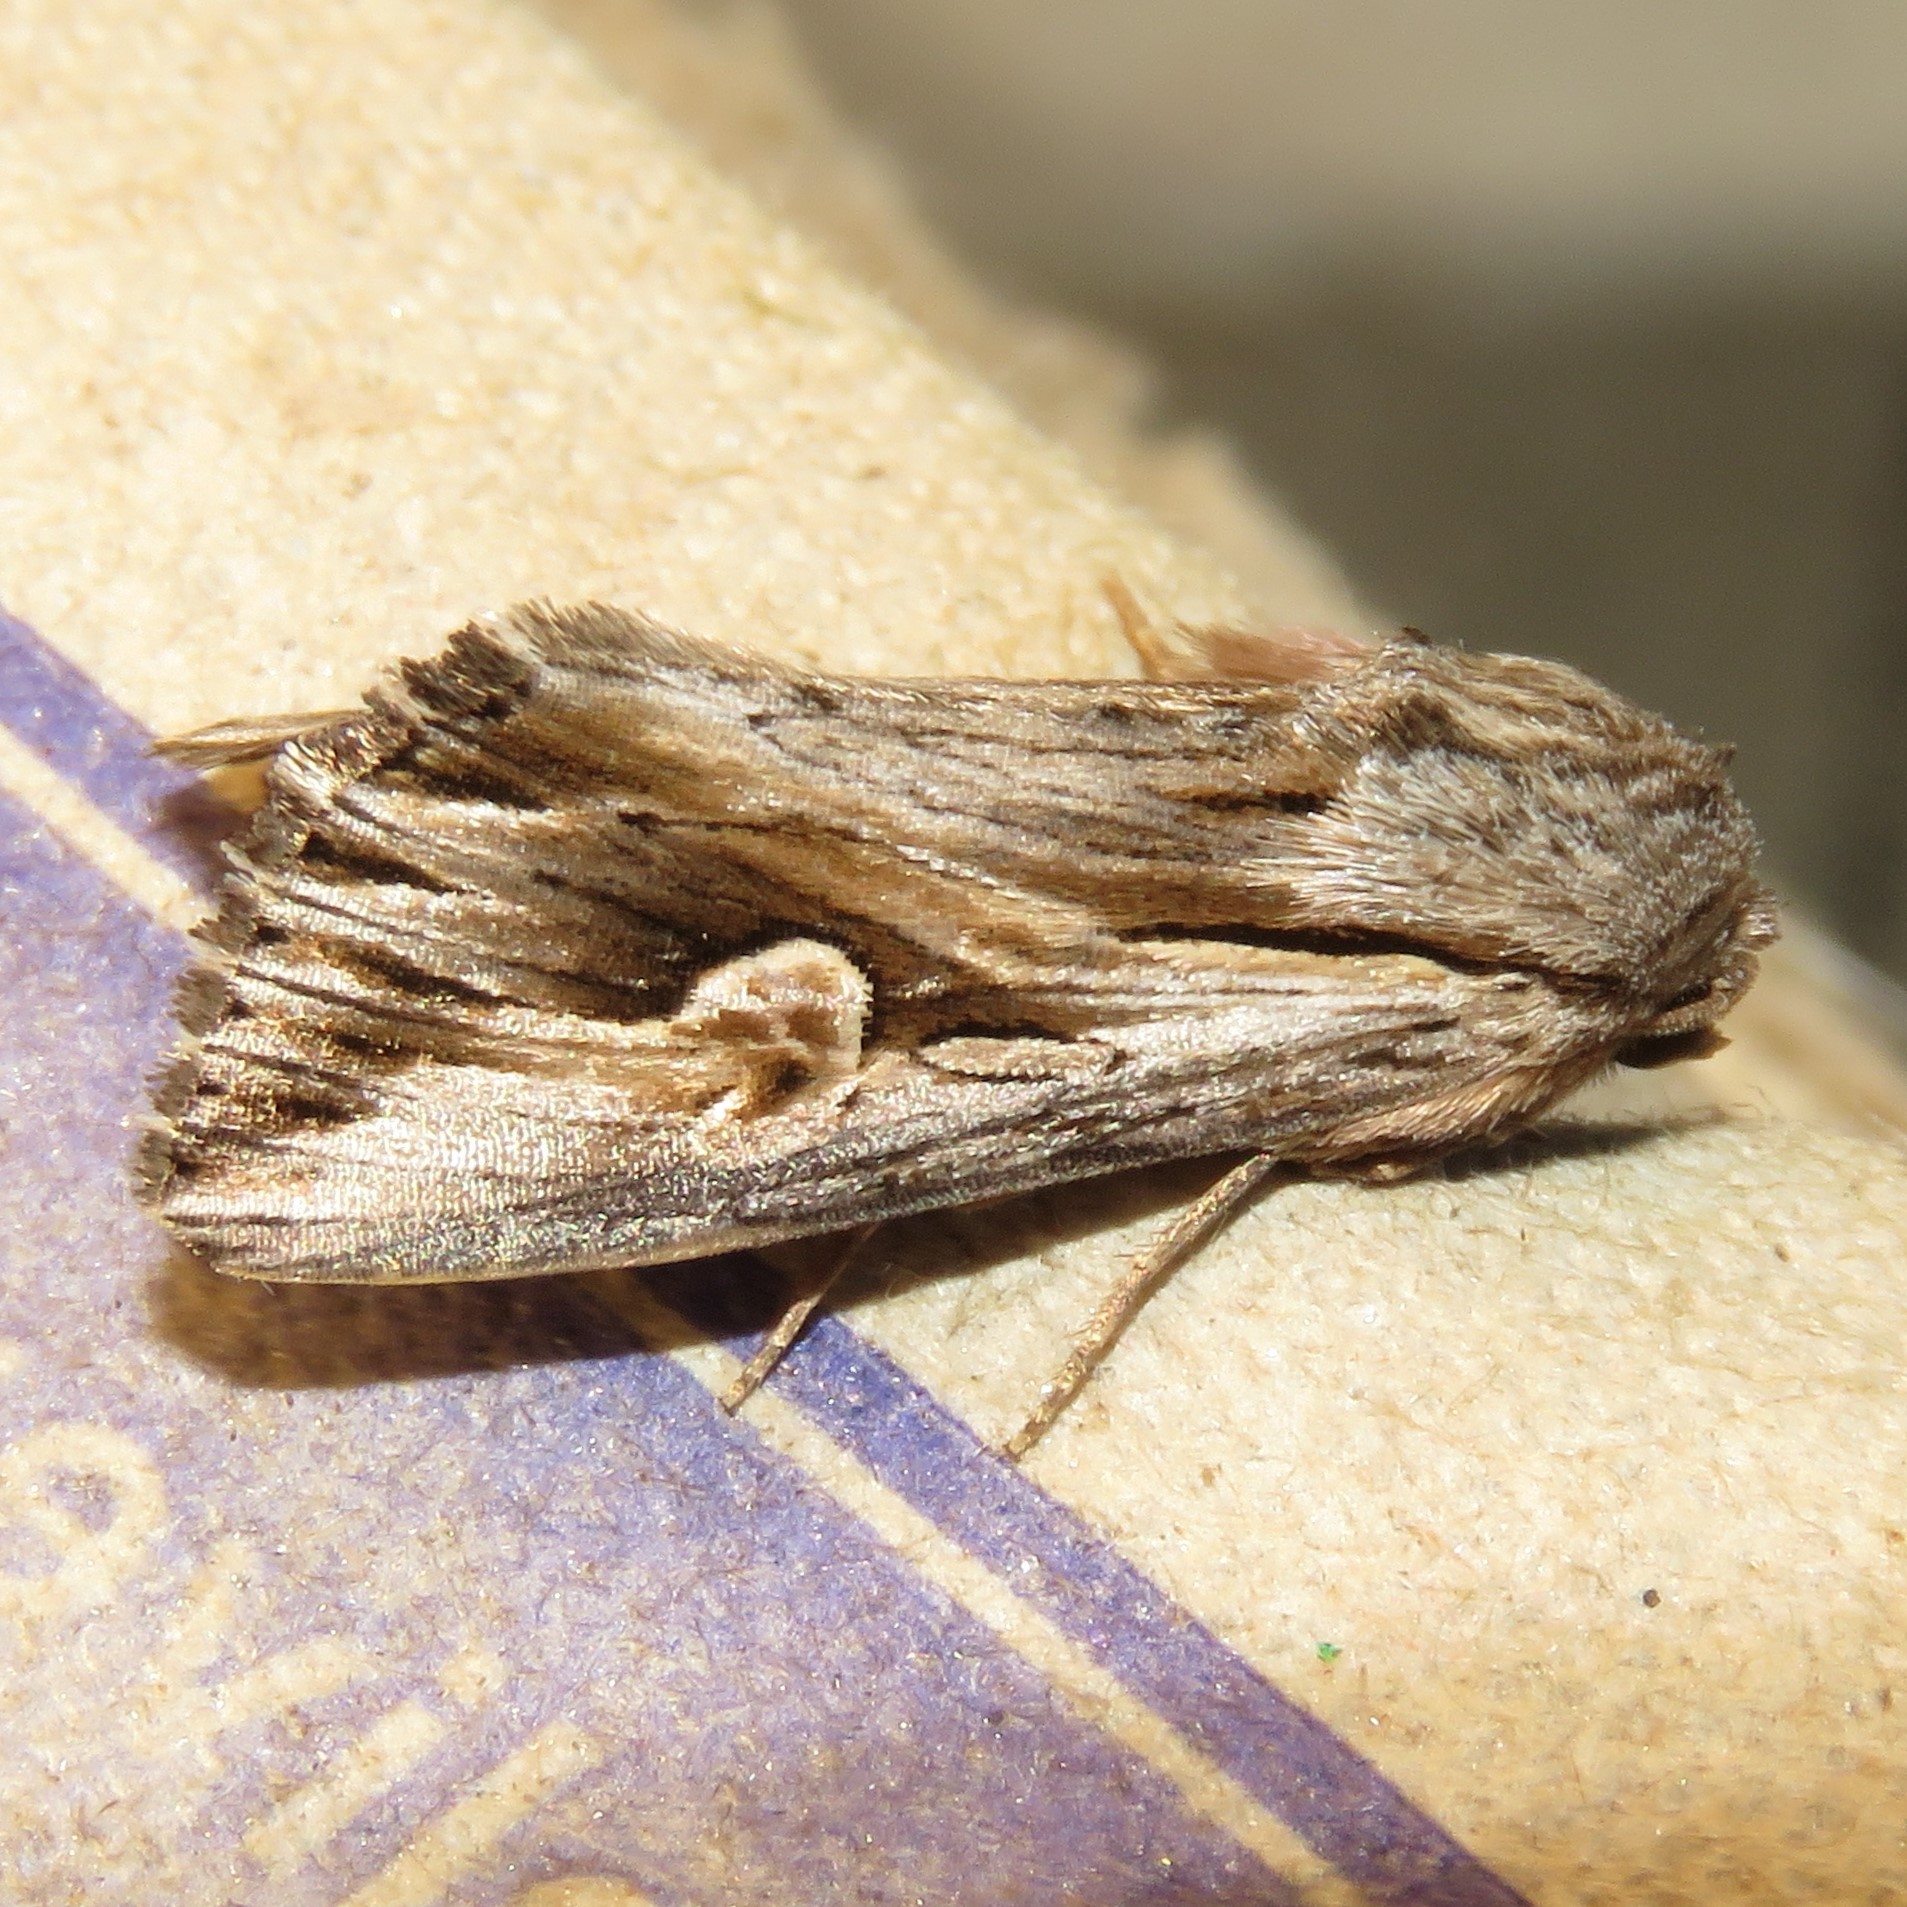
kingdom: Animalia
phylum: Arthropoda
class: Insecta
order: Lepidoptera
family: Noctuidae
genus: Nedra
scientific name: Nedra ramosula
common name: Gray half-spot
